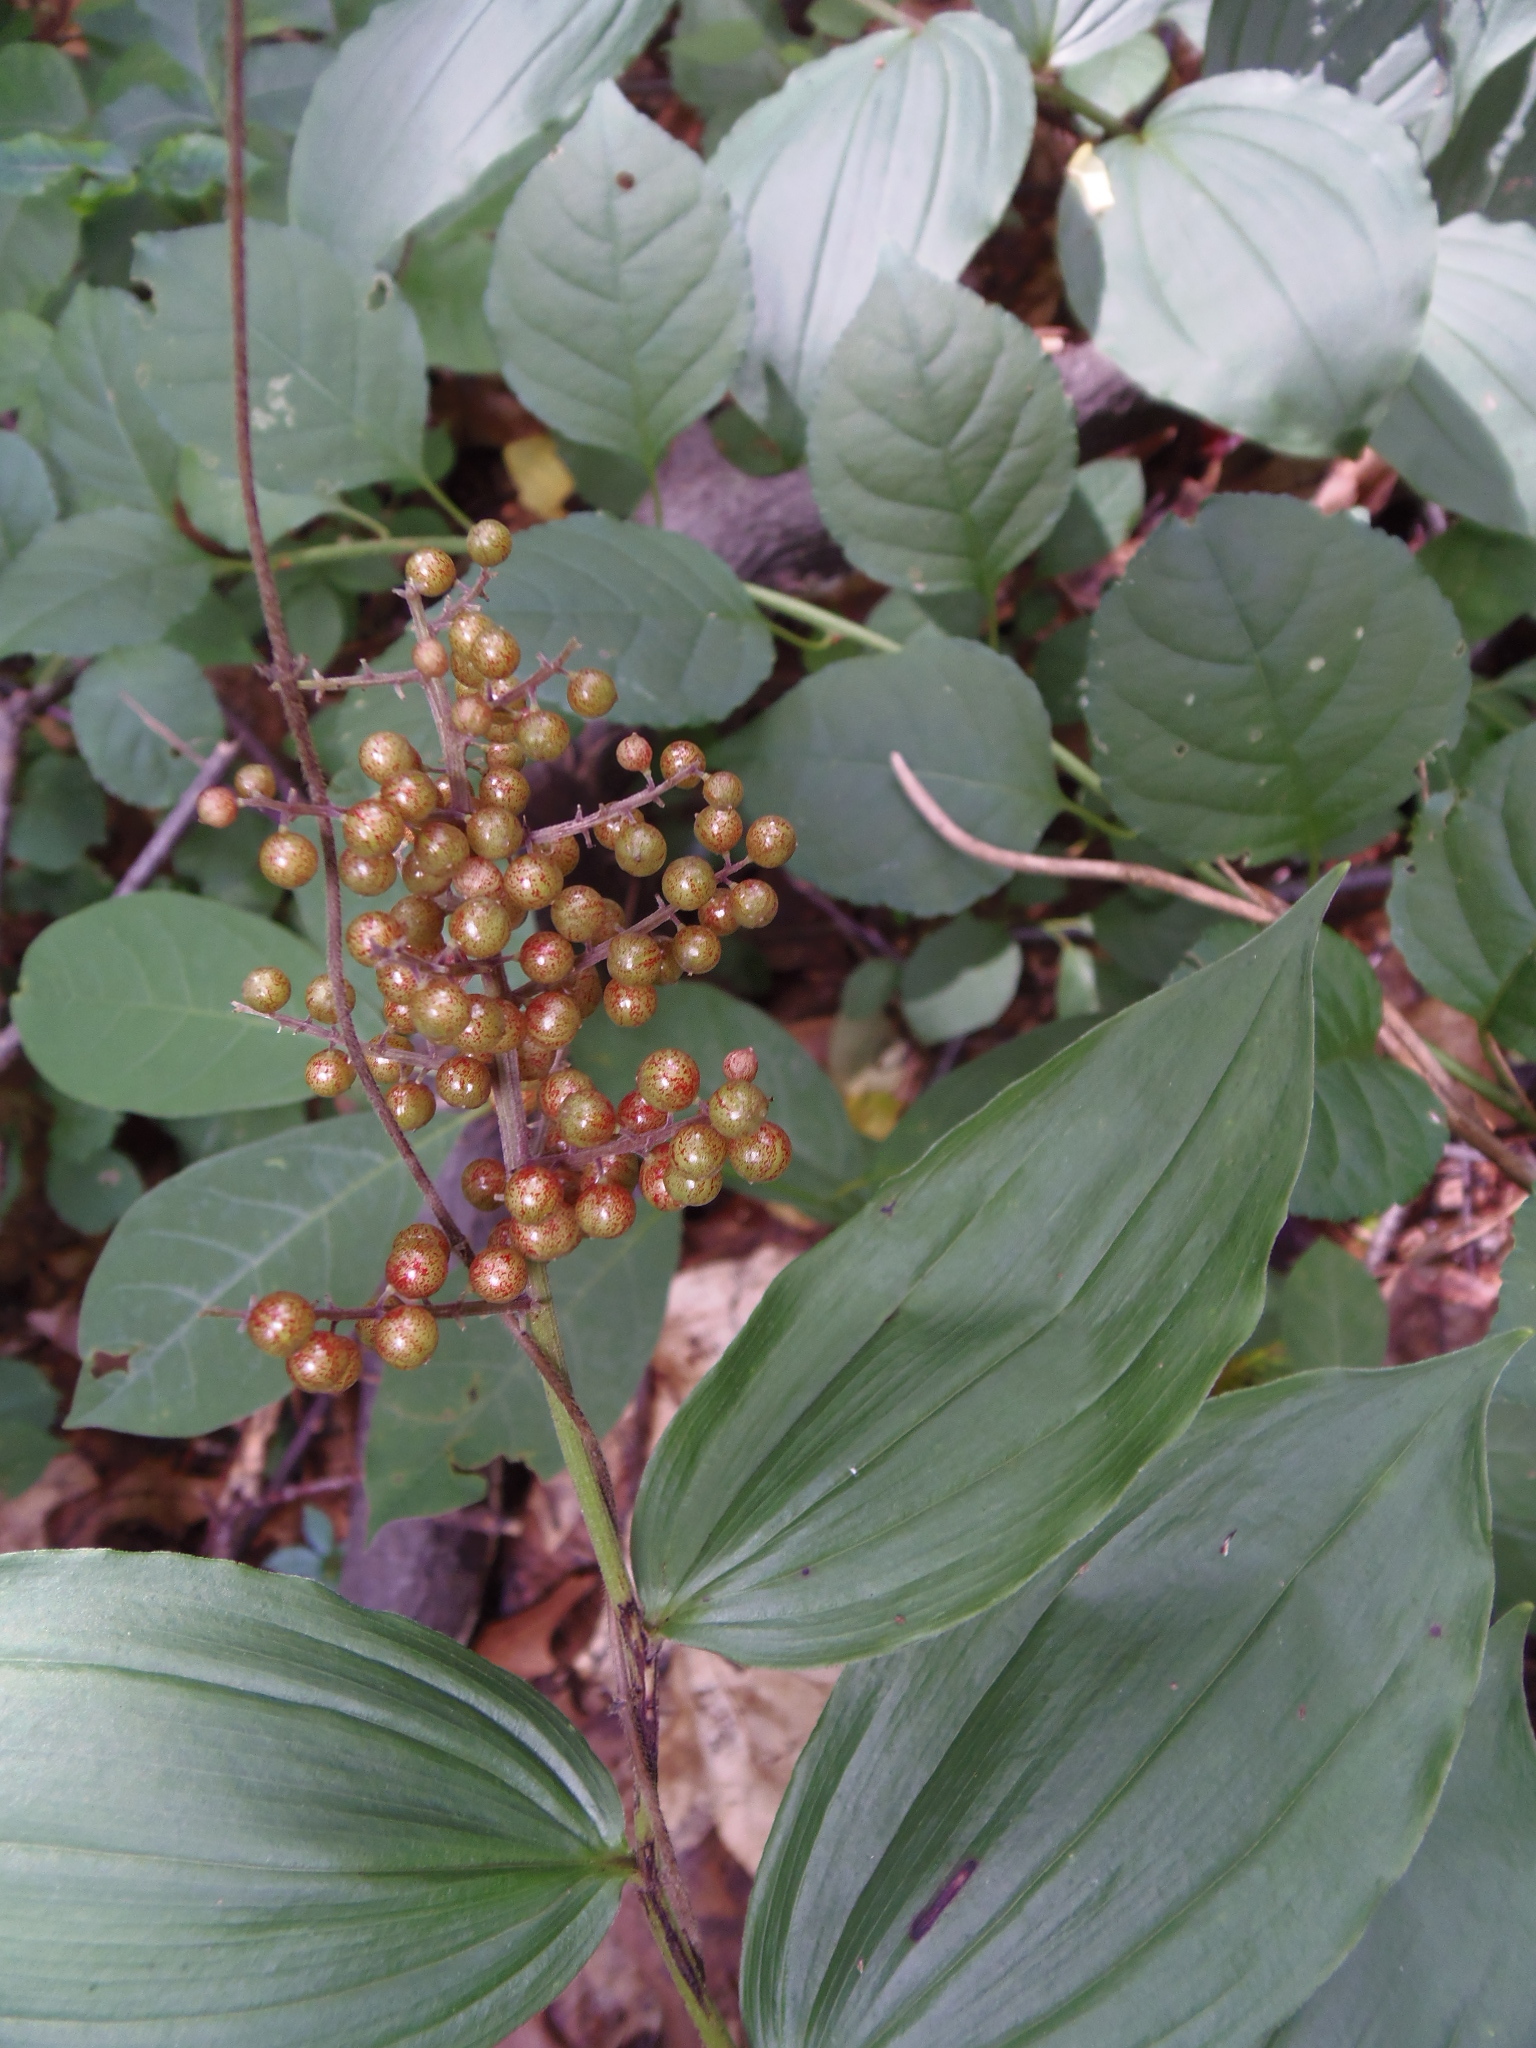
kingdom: Plantae
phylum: Tracheophyta
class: Liliopsida
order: Asparagales
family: Asparagaceae
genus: Maianthemum
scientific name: Maianthemum racemosum
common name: False spikenard
